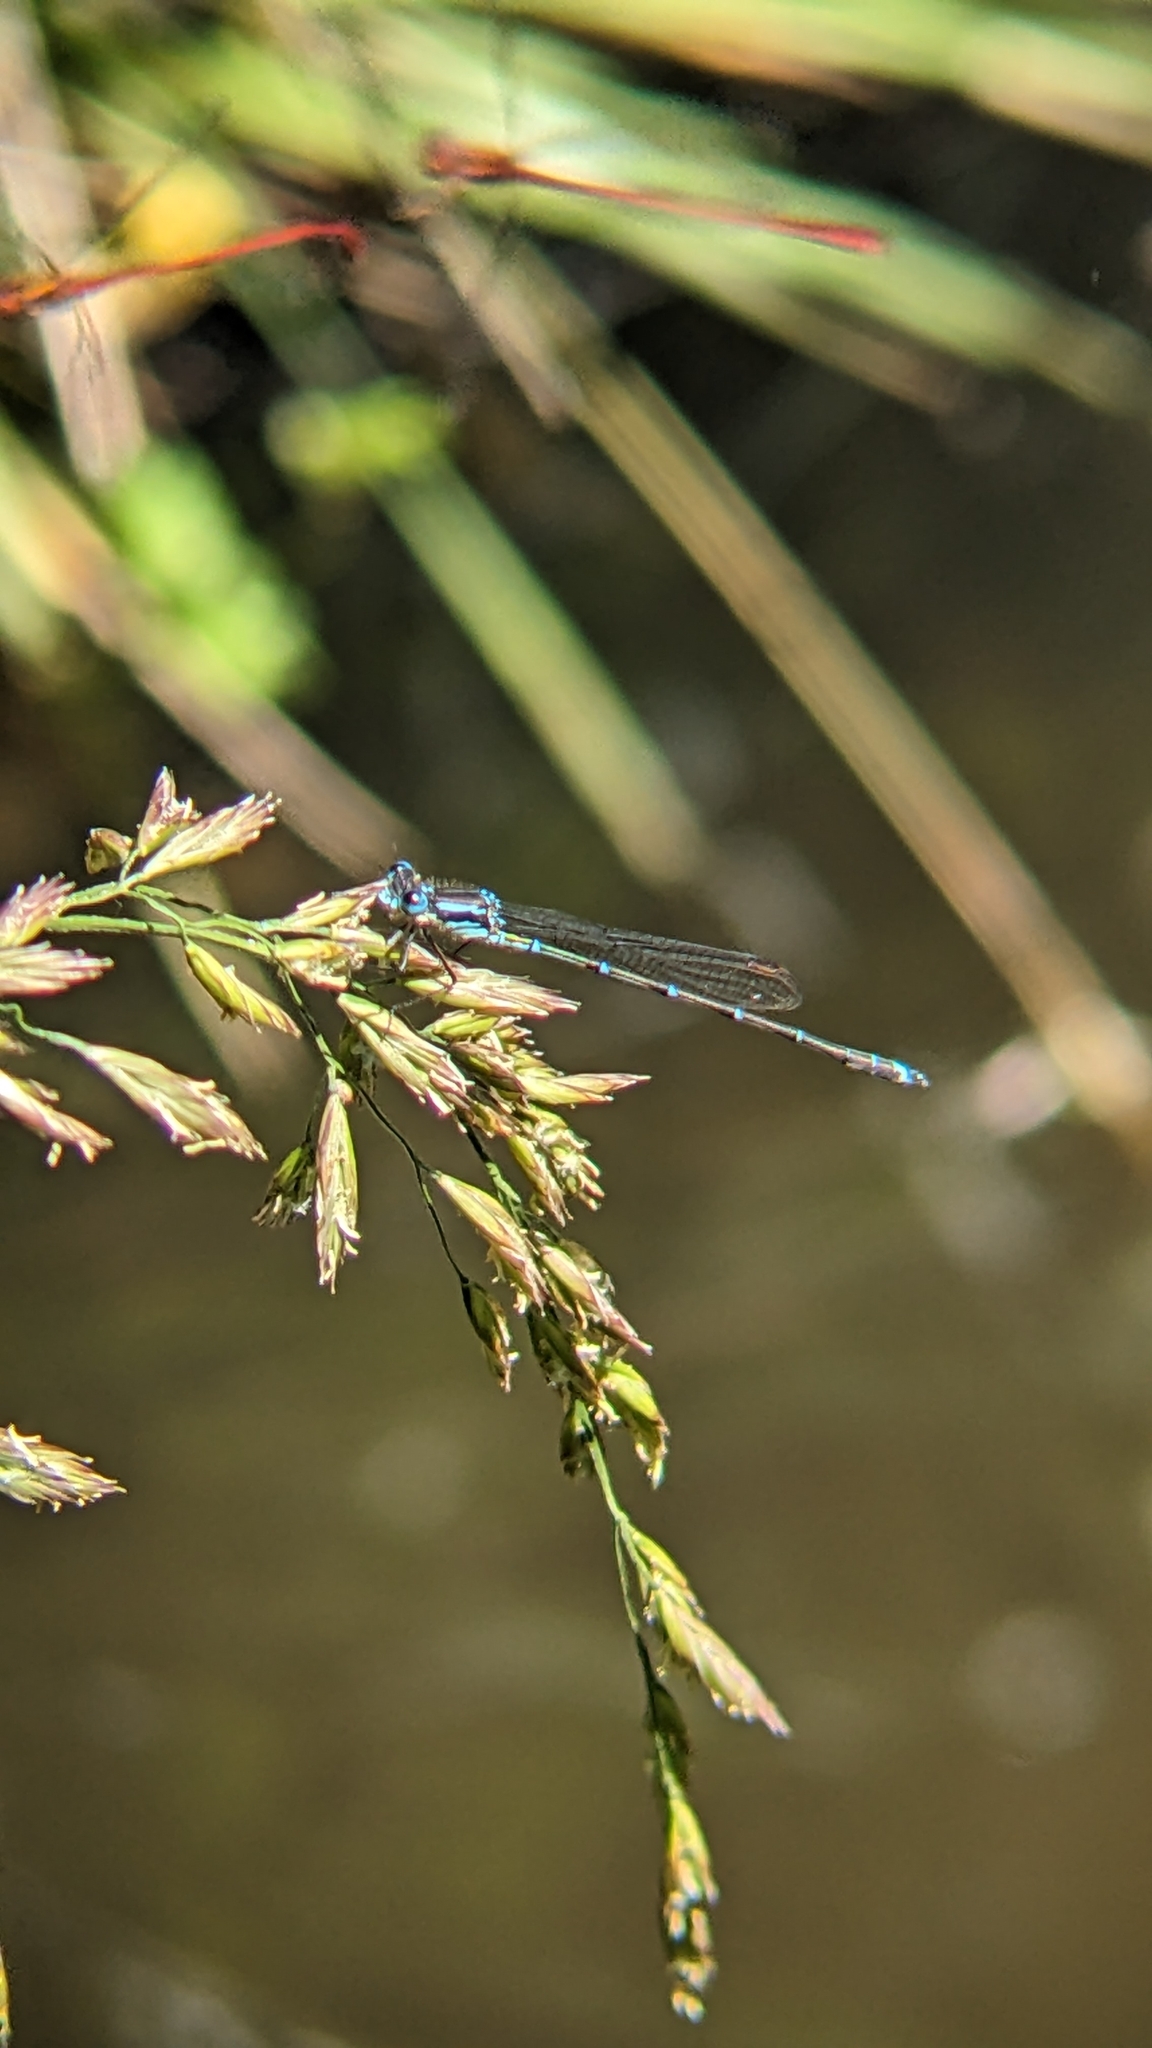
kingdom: Animalia
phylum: Arthropoda
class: Insecta
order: Odonata
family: Lestidae
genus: Austrolestes
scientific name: Austrolestes colensonis
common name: Blue damselfly
